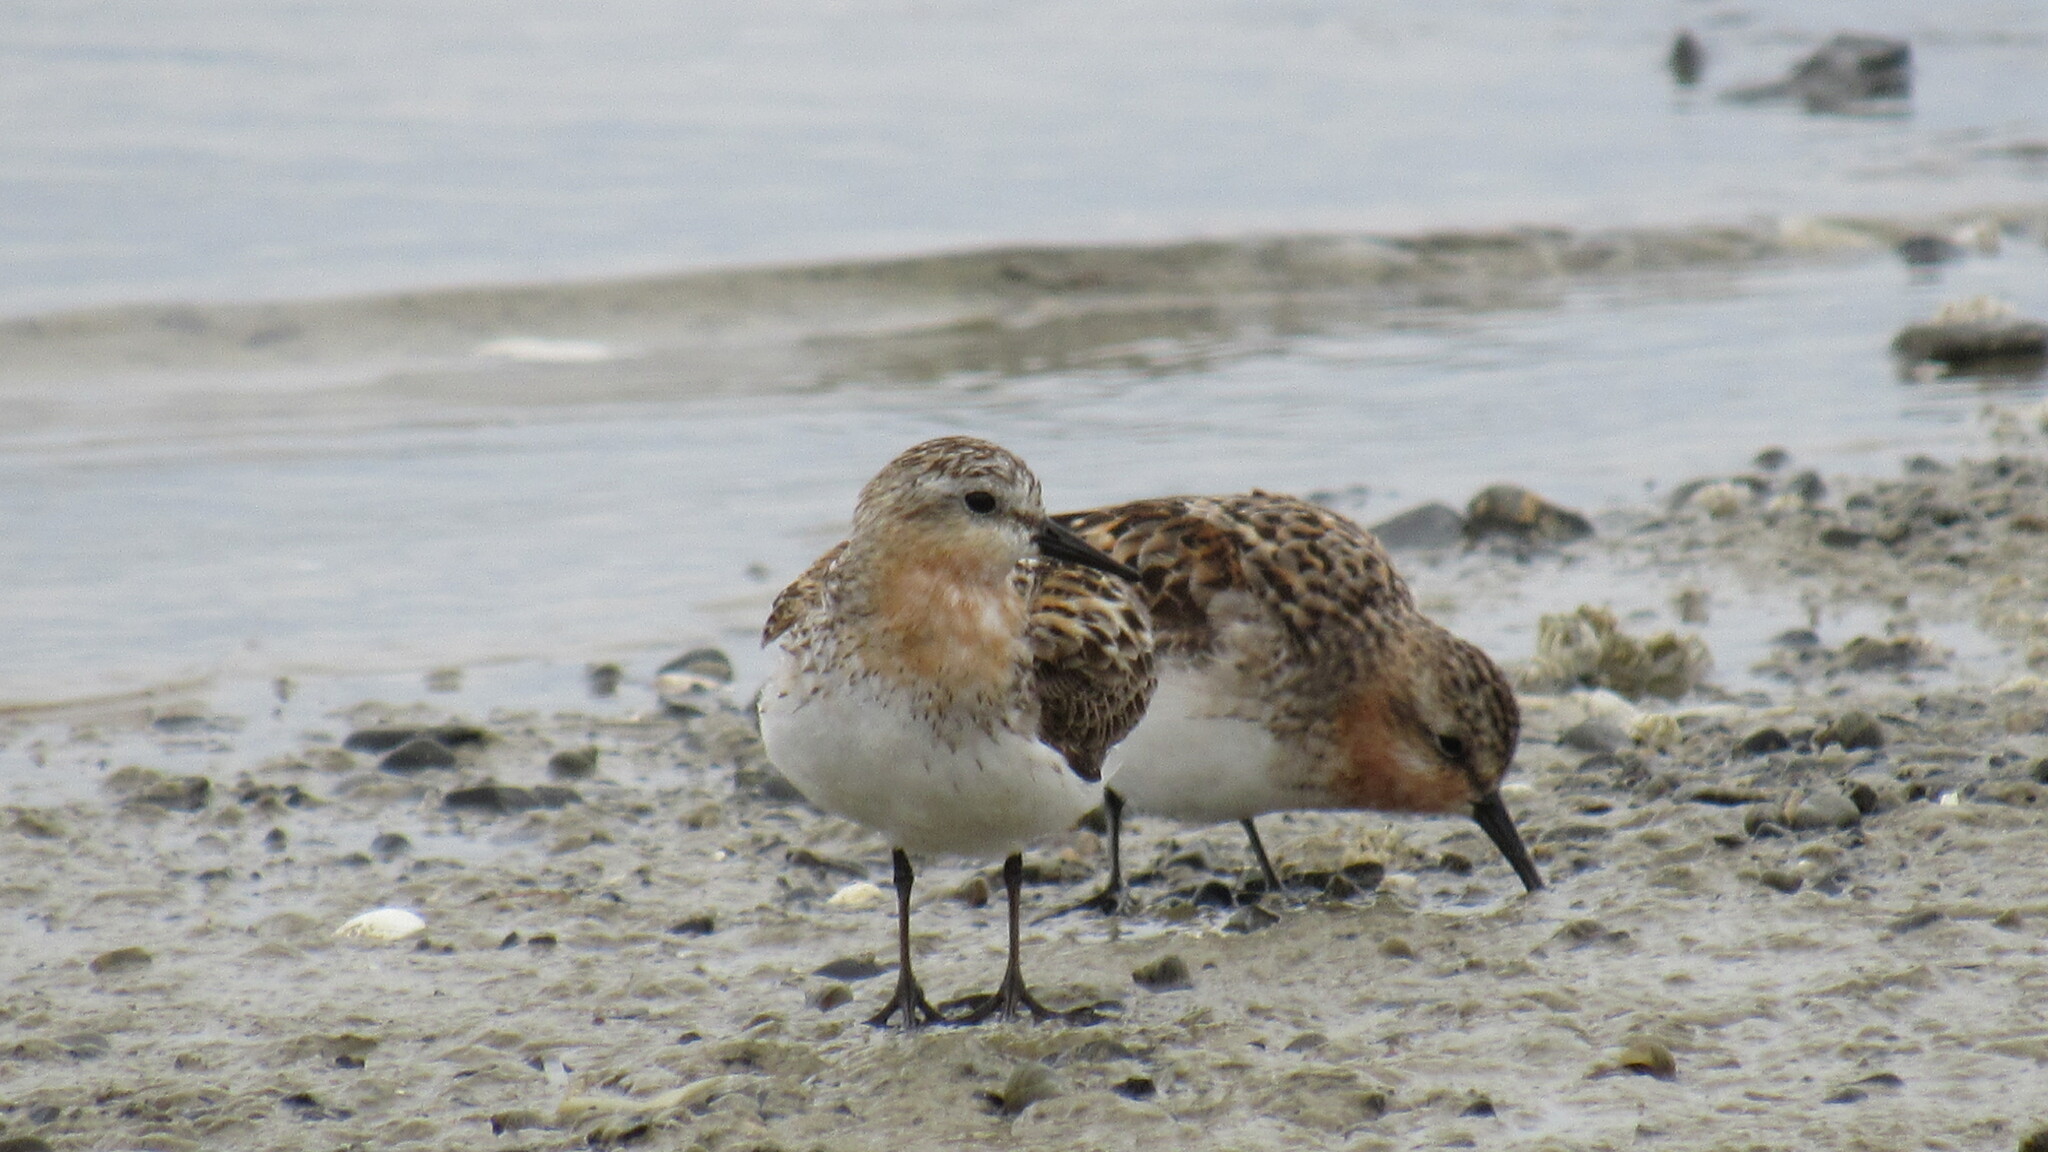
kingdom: Animalia
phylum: Chordata
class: Aves
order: Charadriiformes
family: Scolopacidae
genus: Calidris
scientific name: Calidris ruficollis
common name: Red-necked stint
